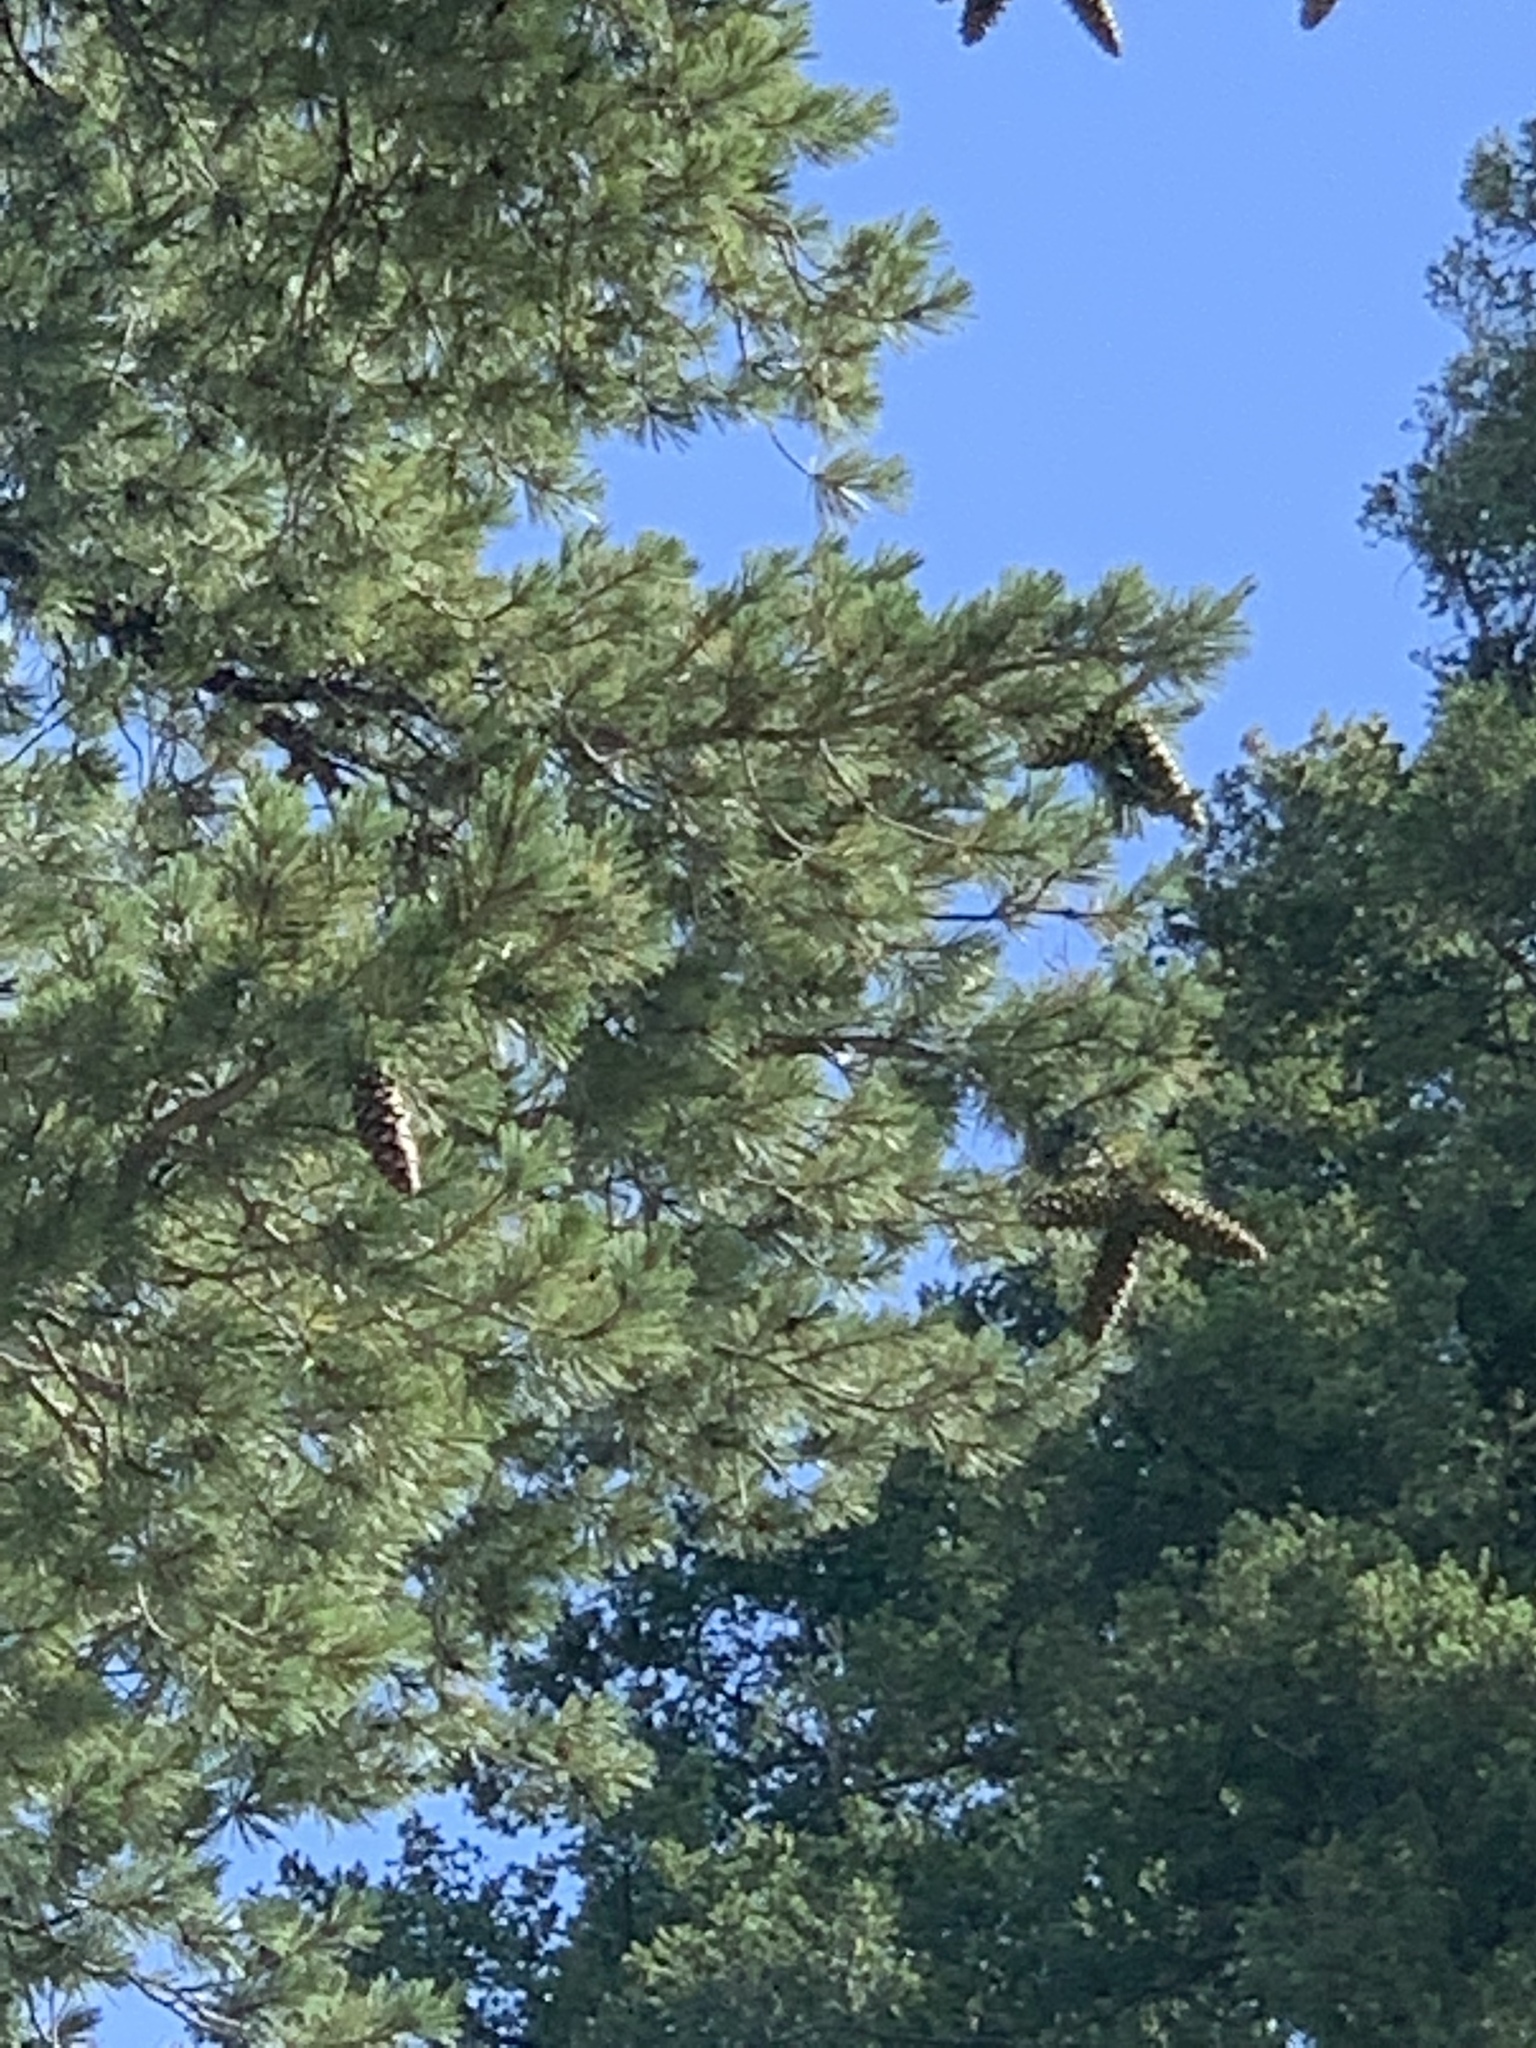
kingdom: Plantae
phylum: Tracheophyta
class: Pinopsida
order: Pinales
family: Pinaceae
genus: Pinus
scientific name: Pinus strobiformis
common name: Southwestern white pine
